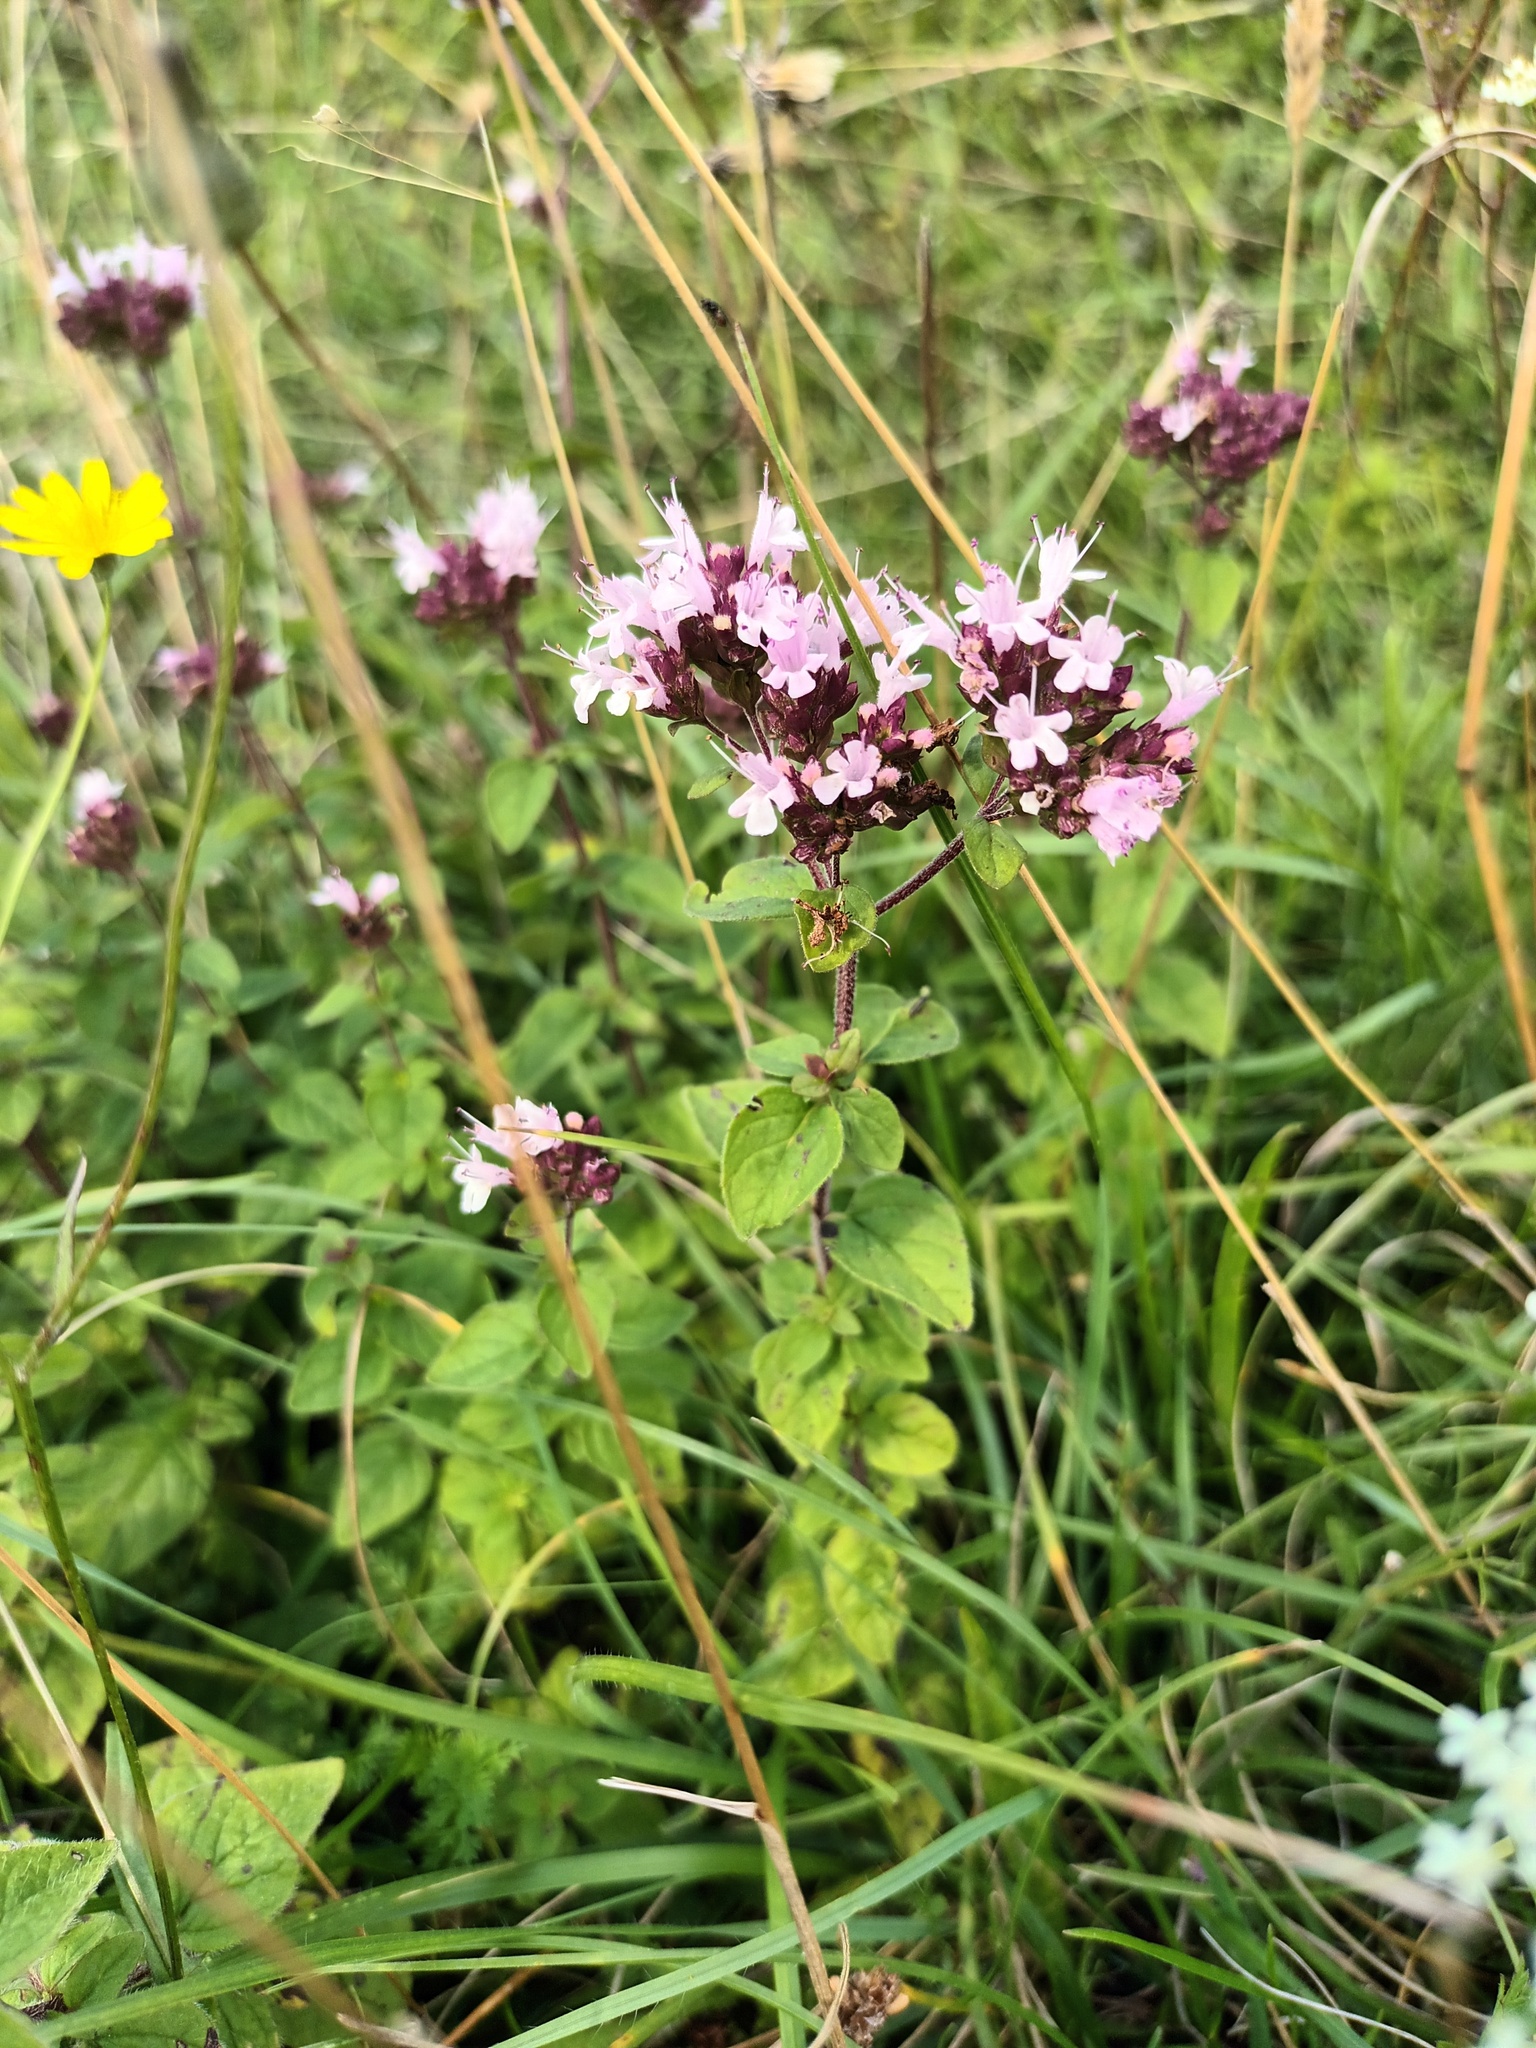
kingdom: Plantae
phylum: Tracheophyta
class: Magnoliopsida
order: Lamiales
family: Lamiaceae
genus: Origanum
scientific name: Origanum vulgare
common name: Wild marjoram
